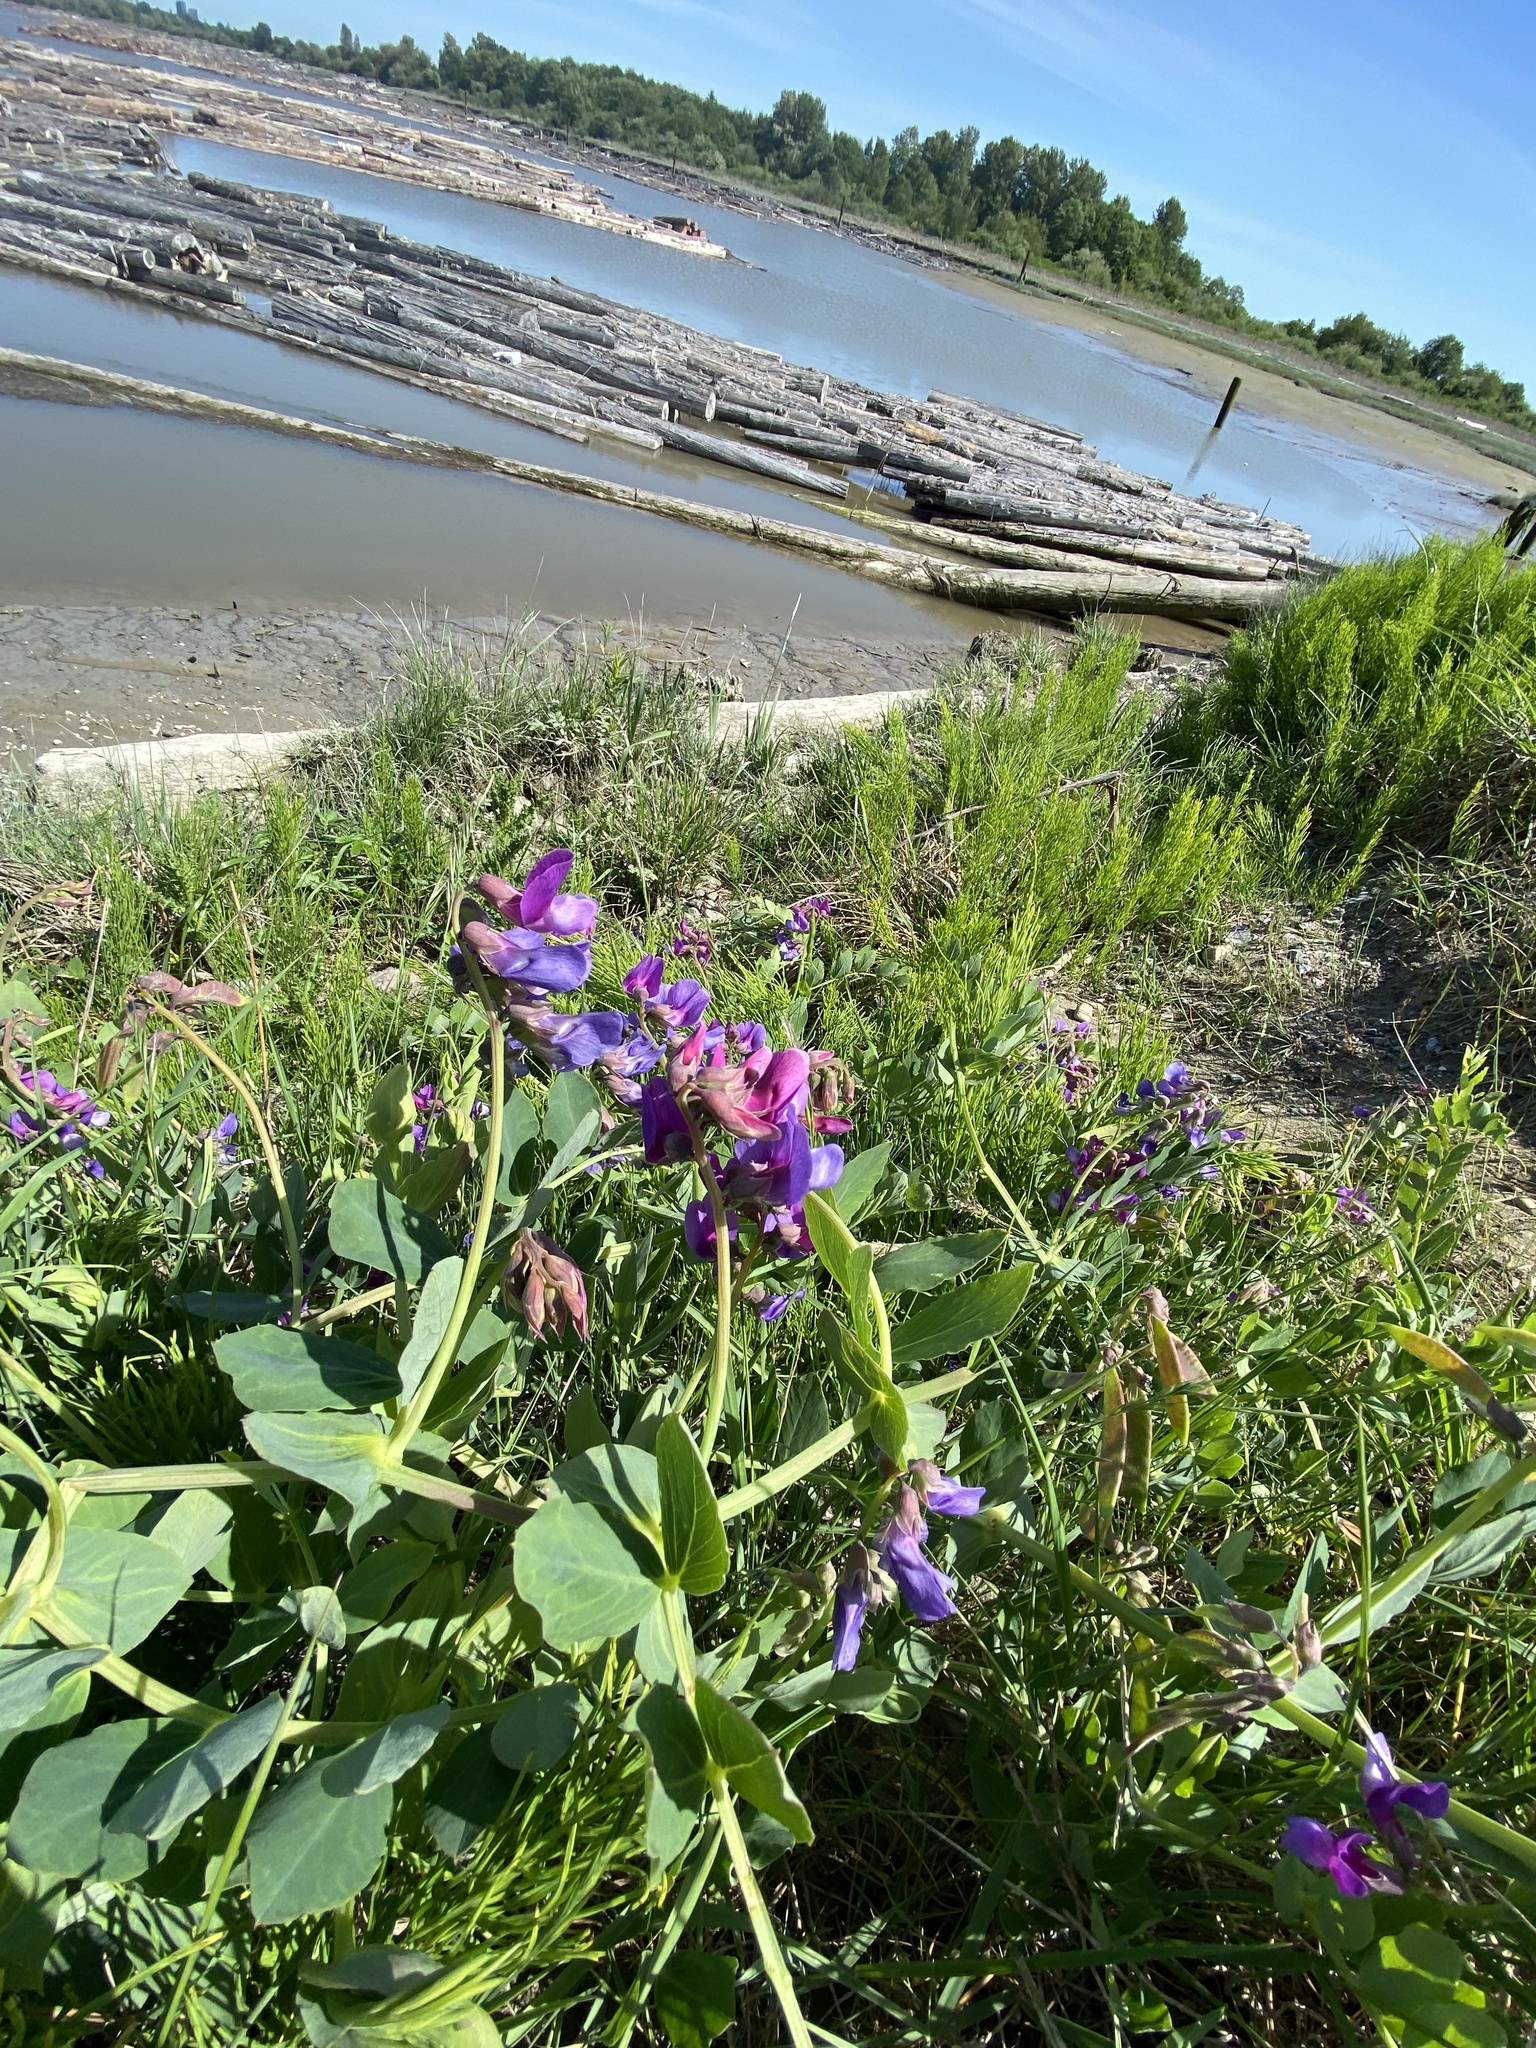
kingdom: Plantae
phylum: Tracheophyta
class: Magnoliopsida
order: Fabales
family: Fabaceae
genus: Lathyrus
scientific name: Lathyrus japonicus
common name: Sea pea
